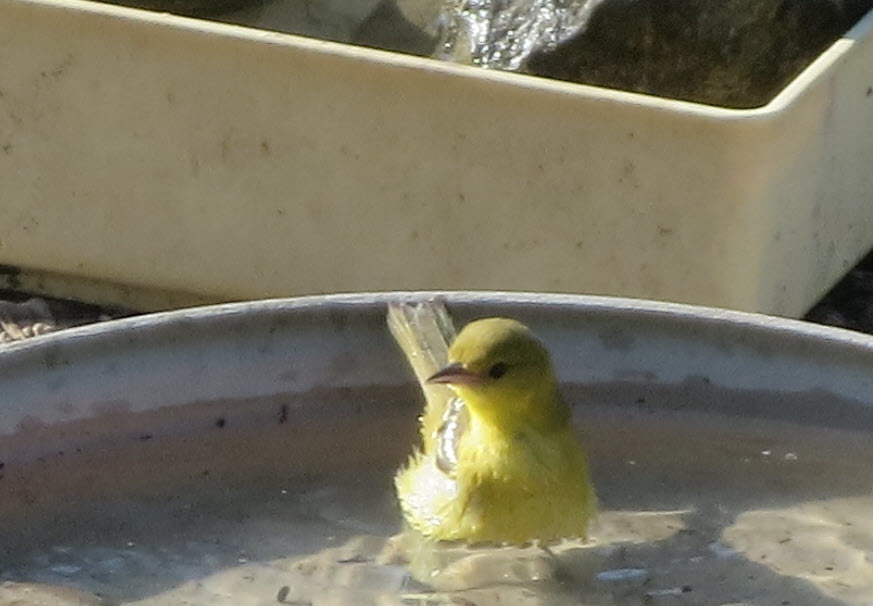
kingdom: Animalia
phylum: Chordata
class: Aves
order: Passeriformes
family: Icteridae
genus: Icterus
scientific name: Icterus spurius
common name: Orchard oriole
